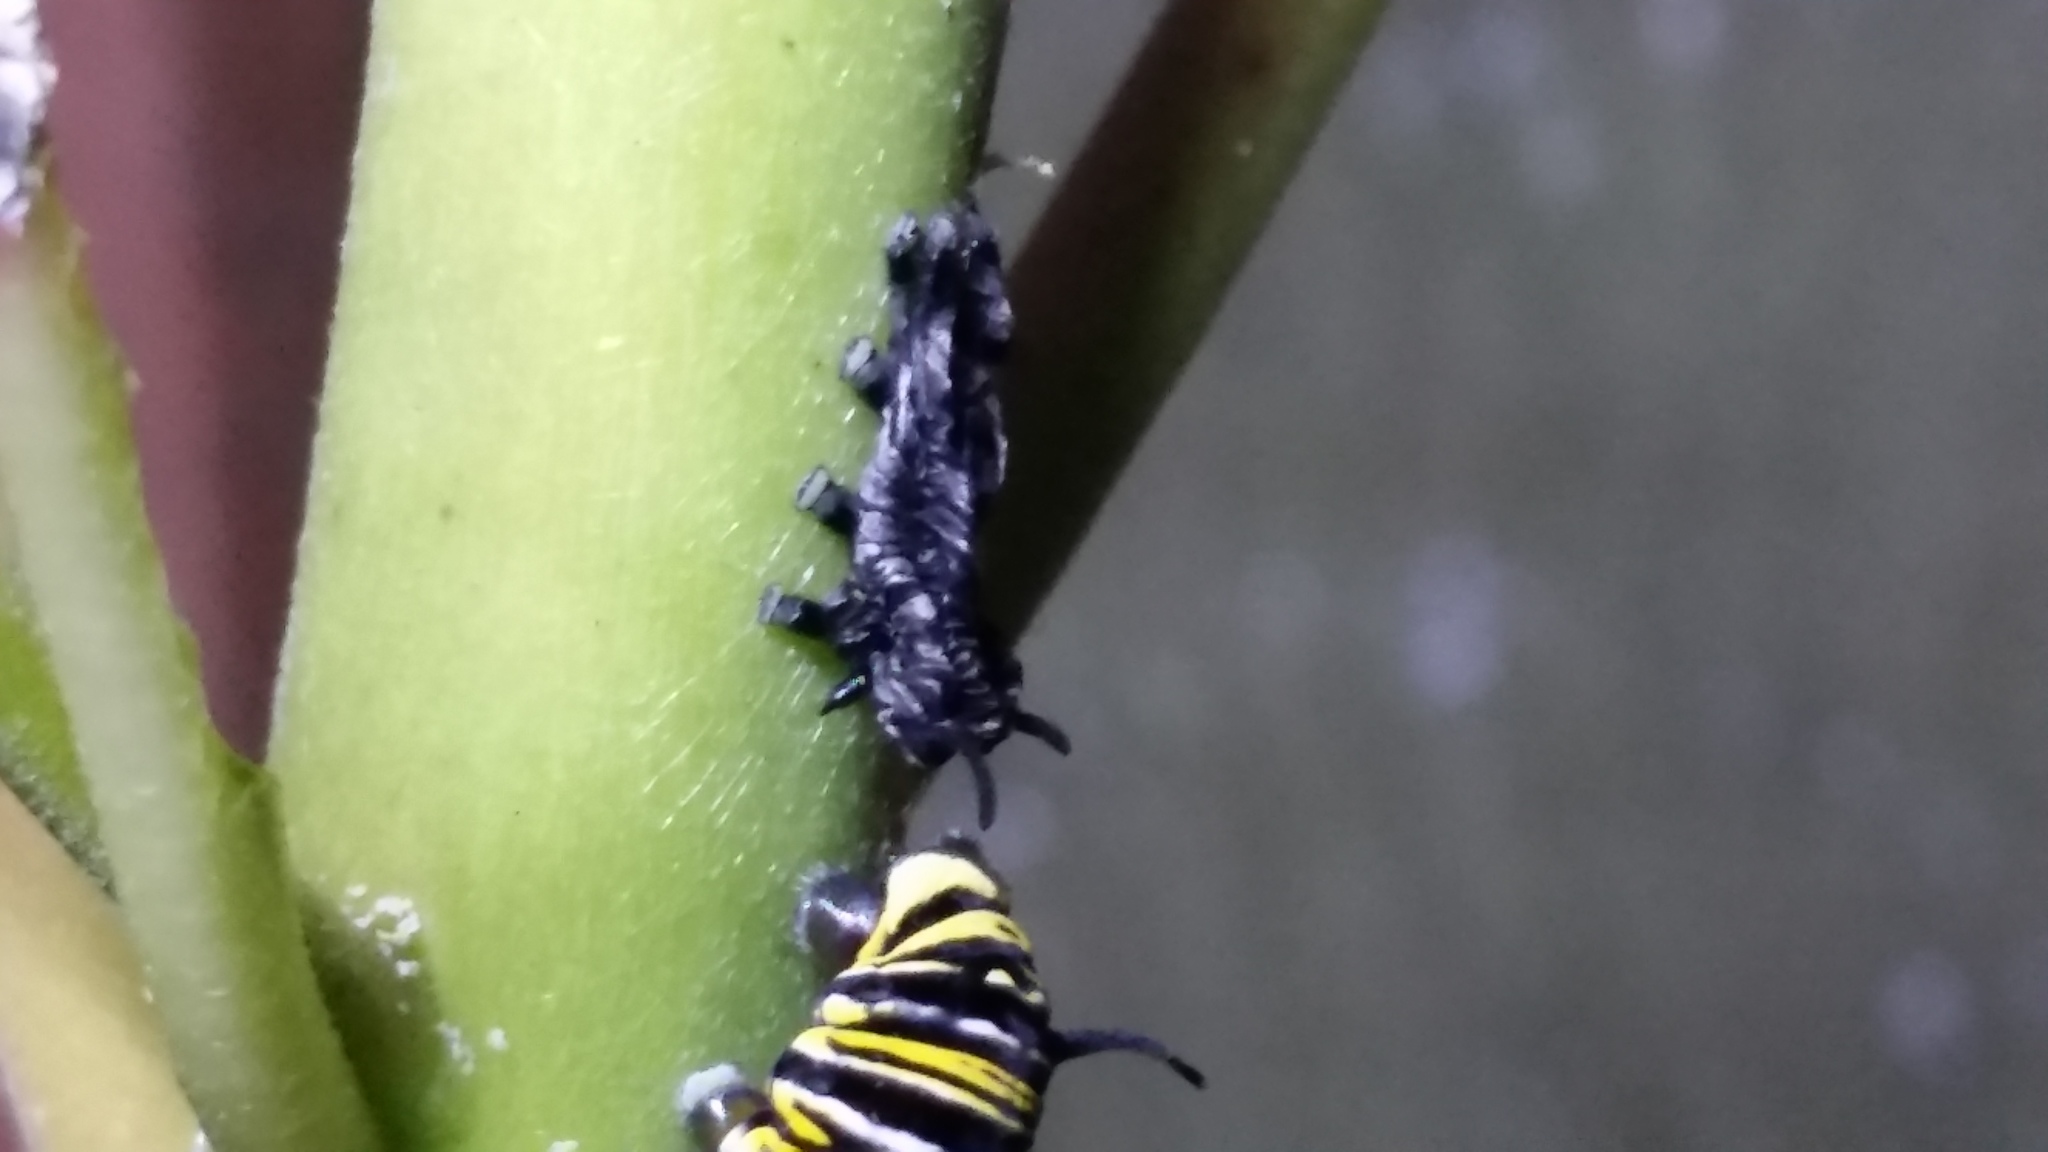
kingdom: Animalia
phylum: Arthropoda
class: Insecta
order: Lepidoptera
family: Nymphalidae
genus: Danaus
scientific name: Danaus plexippus
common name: Monarch
